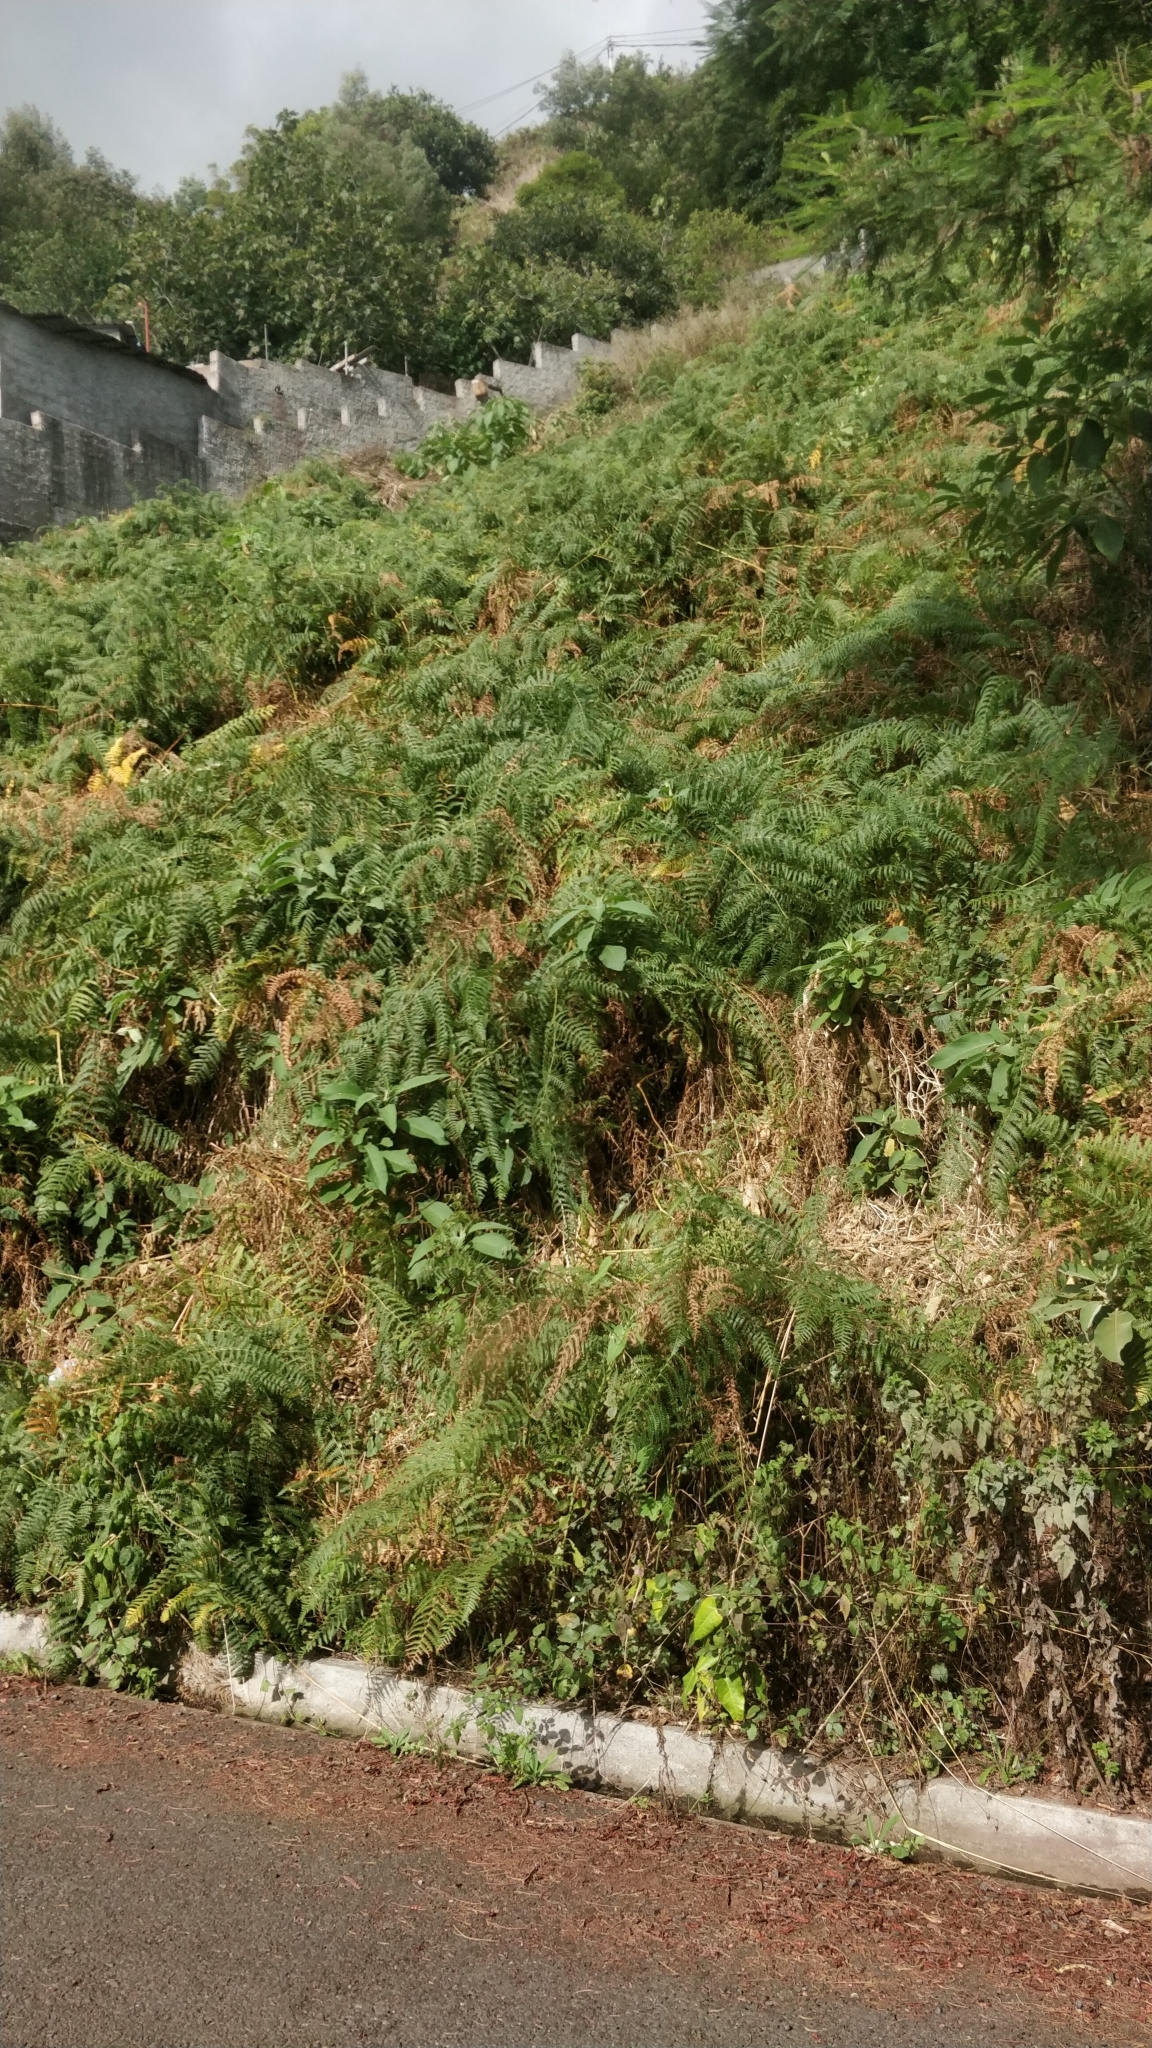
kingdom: Plantae
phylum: Tracheophyta
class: Polypodiopsida
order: Polypodiales
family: Dennstaedtiaceae
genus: Pteridium
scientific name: Pteridium aquilinum
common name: Bracken
